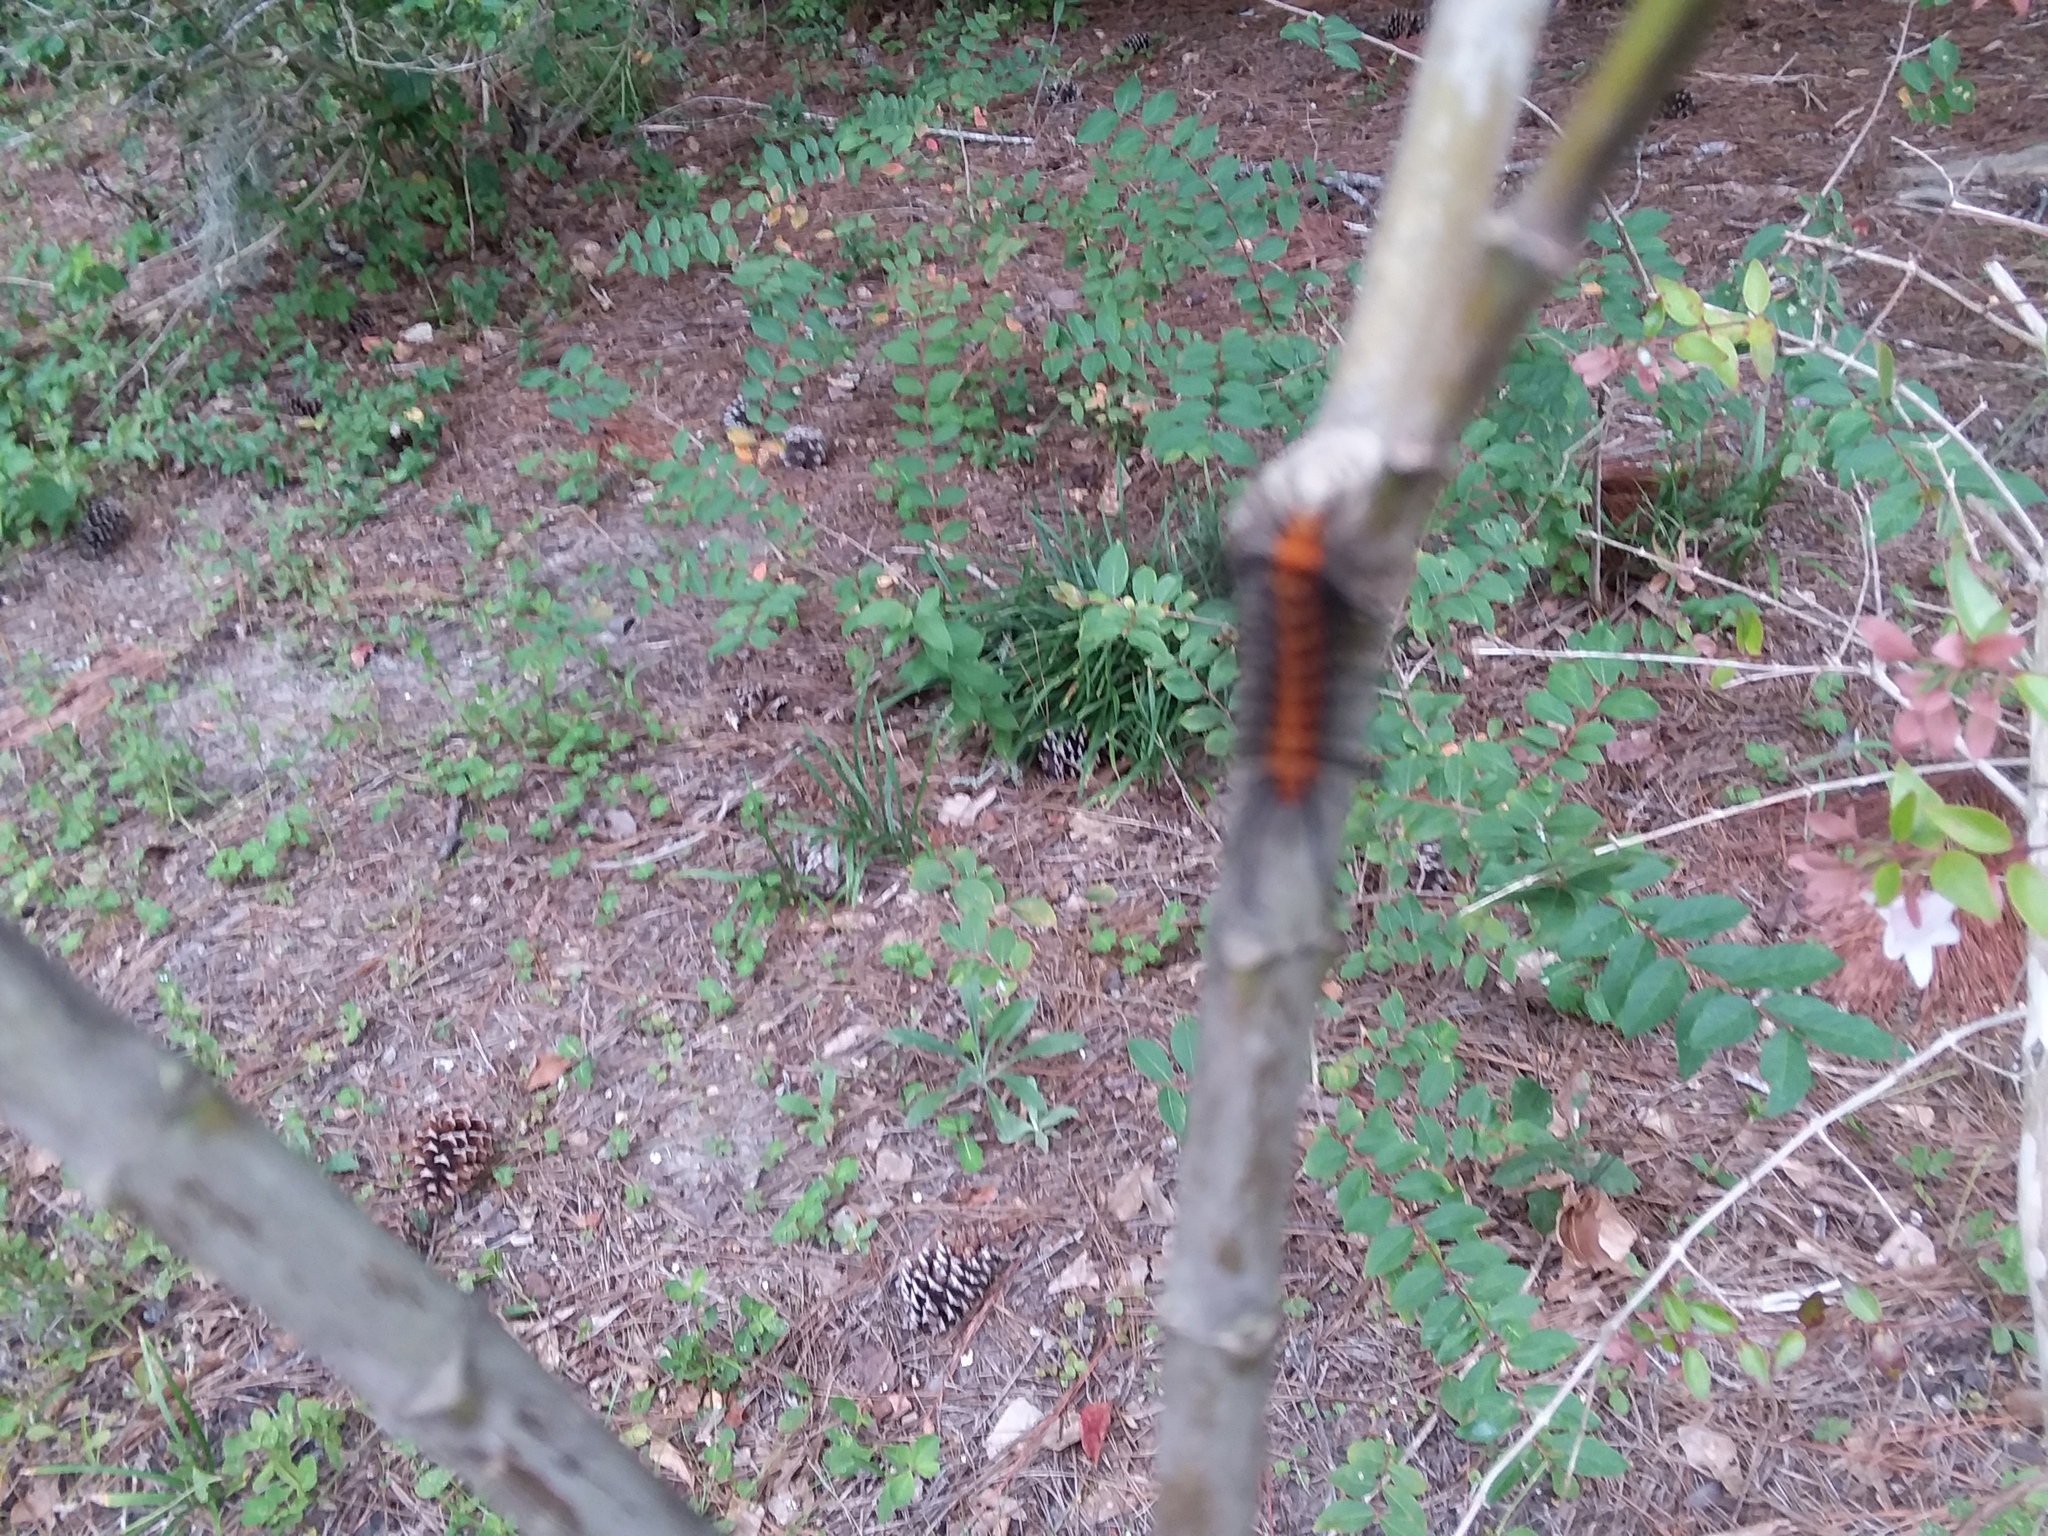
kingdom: Animalia
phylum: Arthropoda
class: Insecta
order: Lepidoptera
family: Erebidae
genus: Syntomeida
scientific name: Syntomeida epilais
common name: Polka-dot wasp moth
